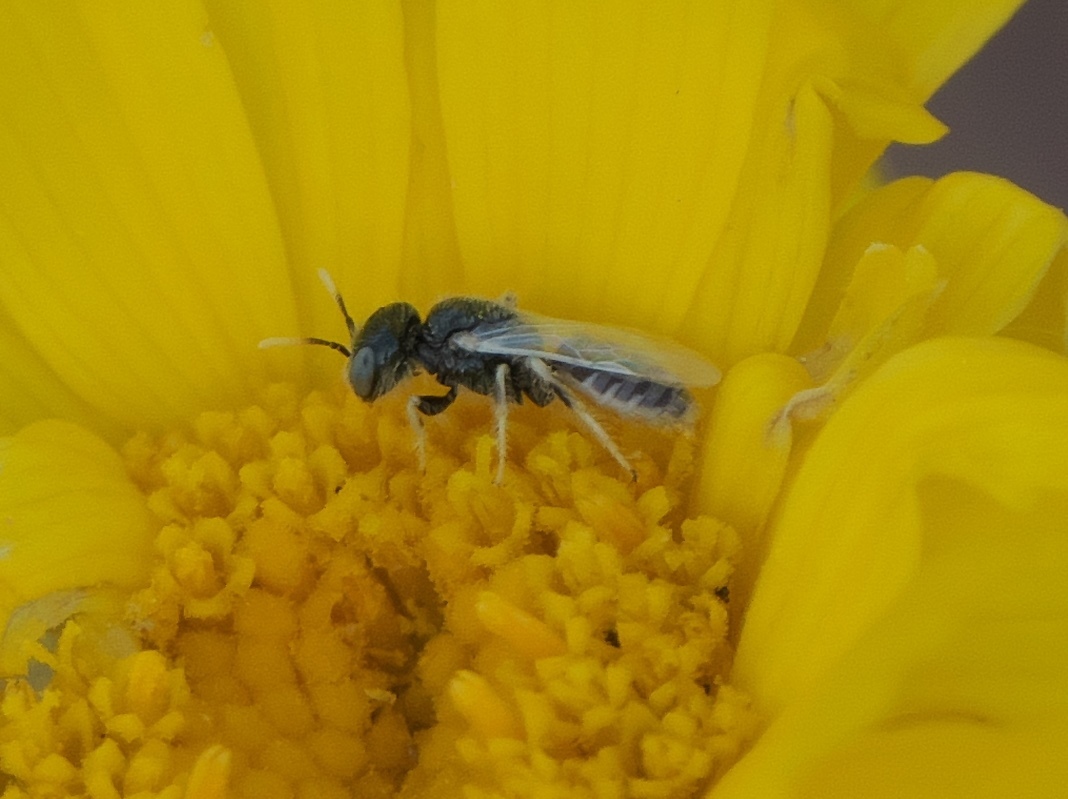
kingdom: Animalia
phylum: Arthropoda
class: Insecta
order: Hymenoptera
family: Andrenidae
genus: Perdita
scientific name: Perdita callicerata
